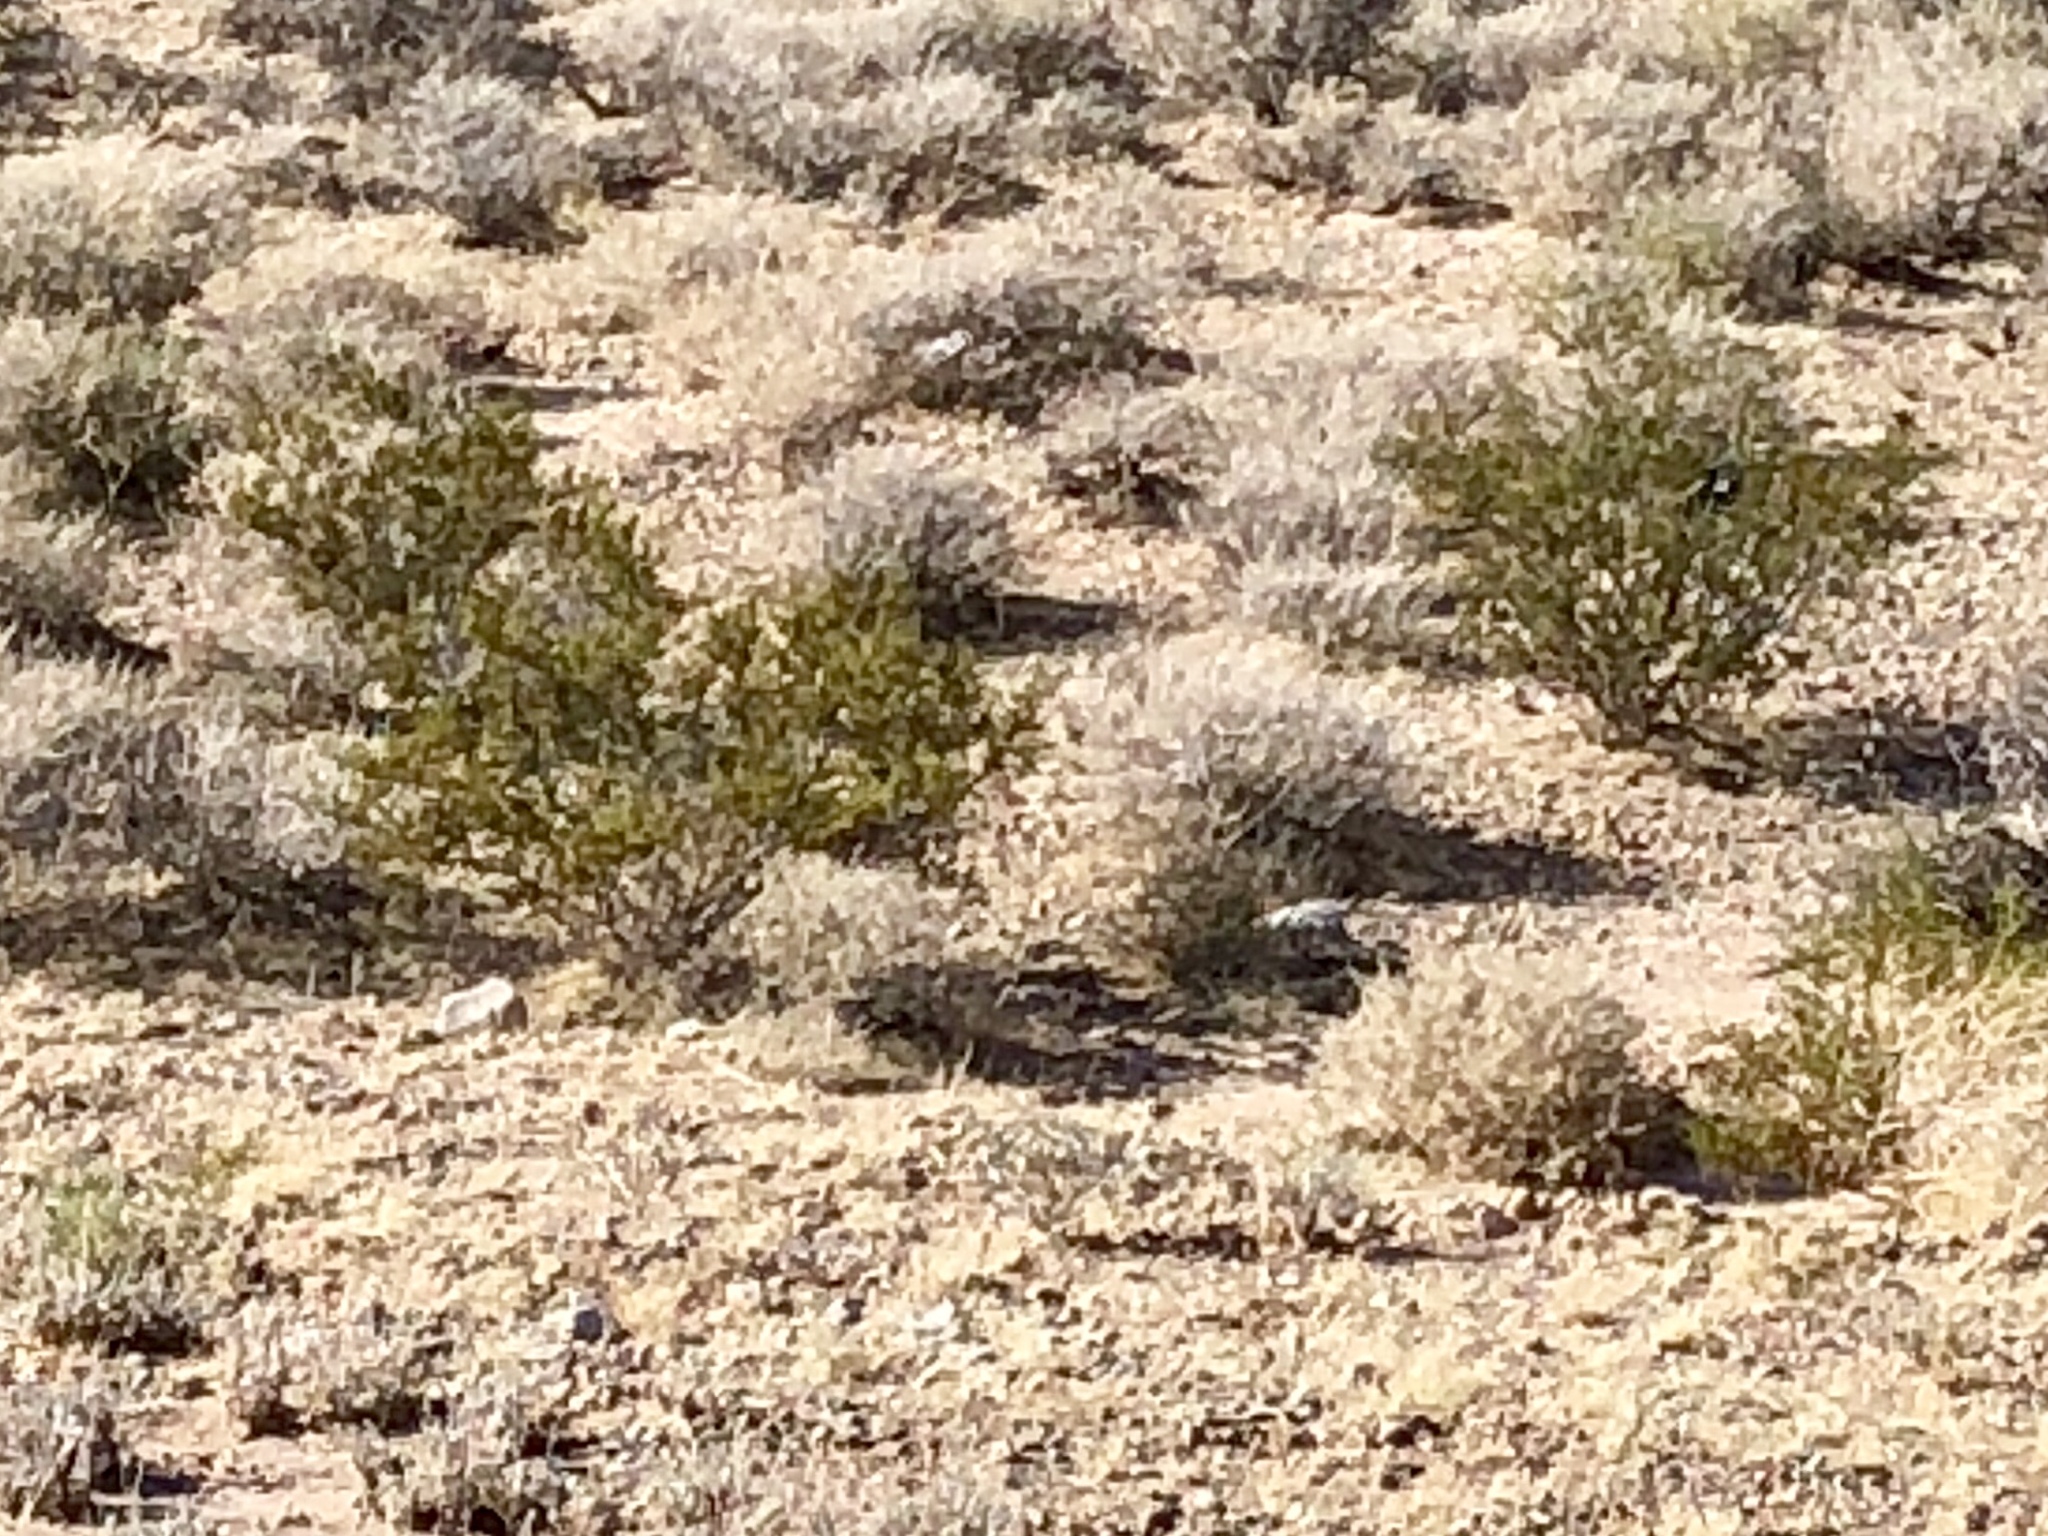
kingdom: Plantae
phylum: Tracheophyta
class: Magnoliopsida
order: Zygophyllales
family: Zygophyllaceae
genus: Larrea
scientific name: Larrea tridentata
